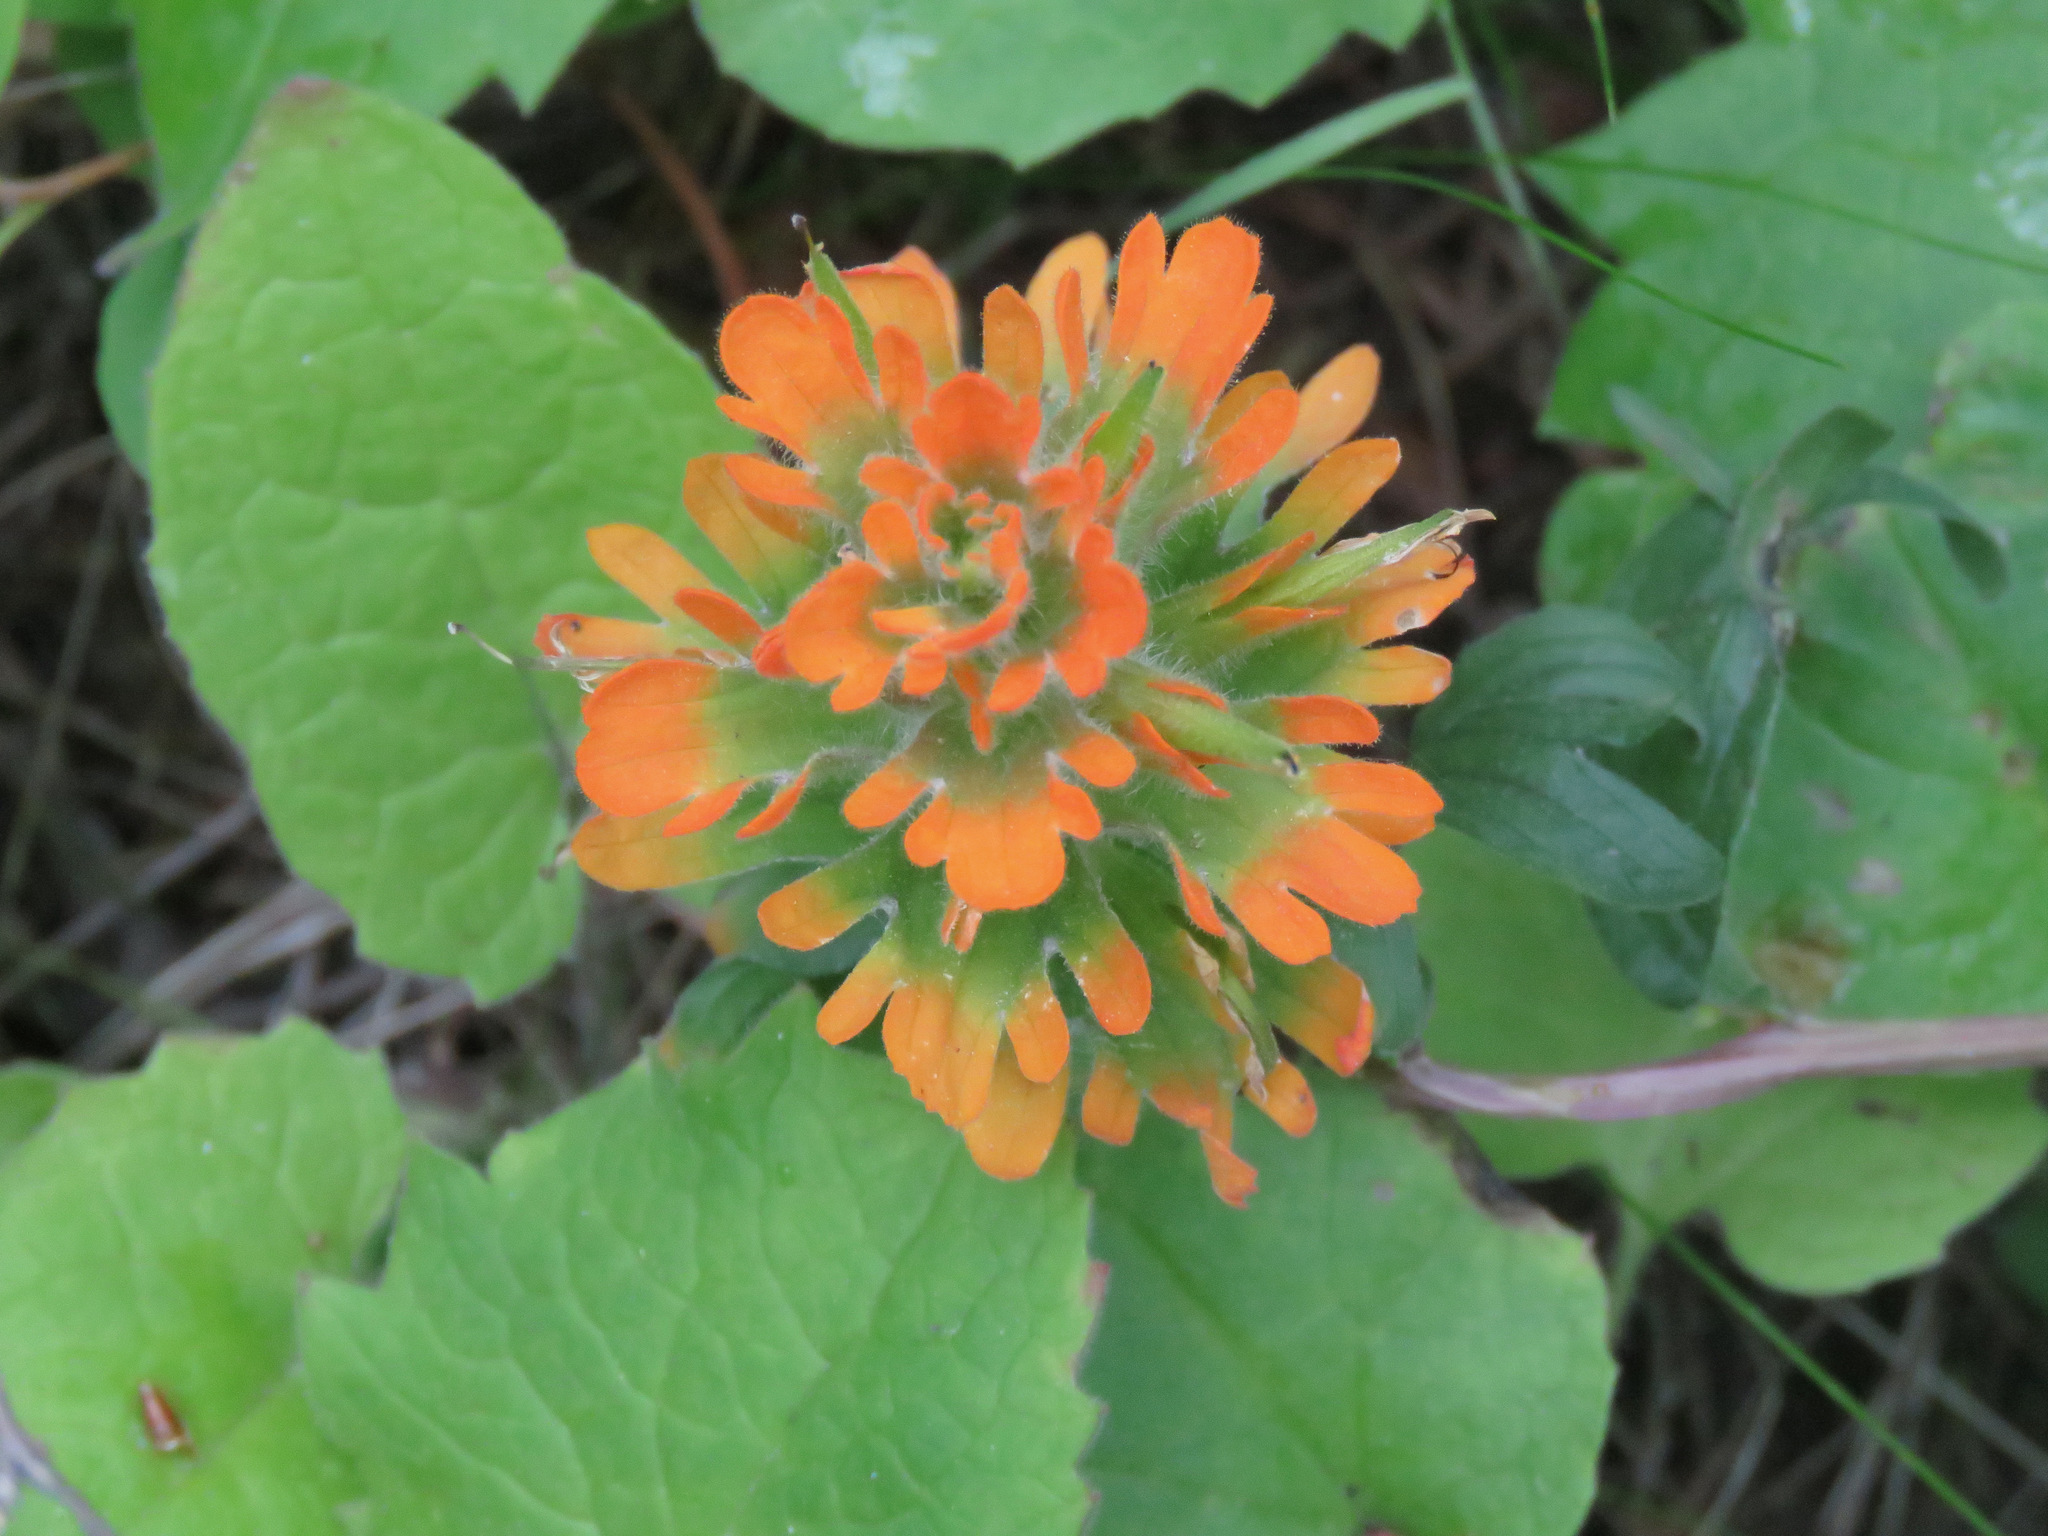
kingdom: Plantae
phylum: Tracheophyta
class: Magnoliopsida
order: Lamiales
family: Orobanchaceae
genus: Castilleja
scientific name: Castilleja hispida
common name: Bristly paintbrush
